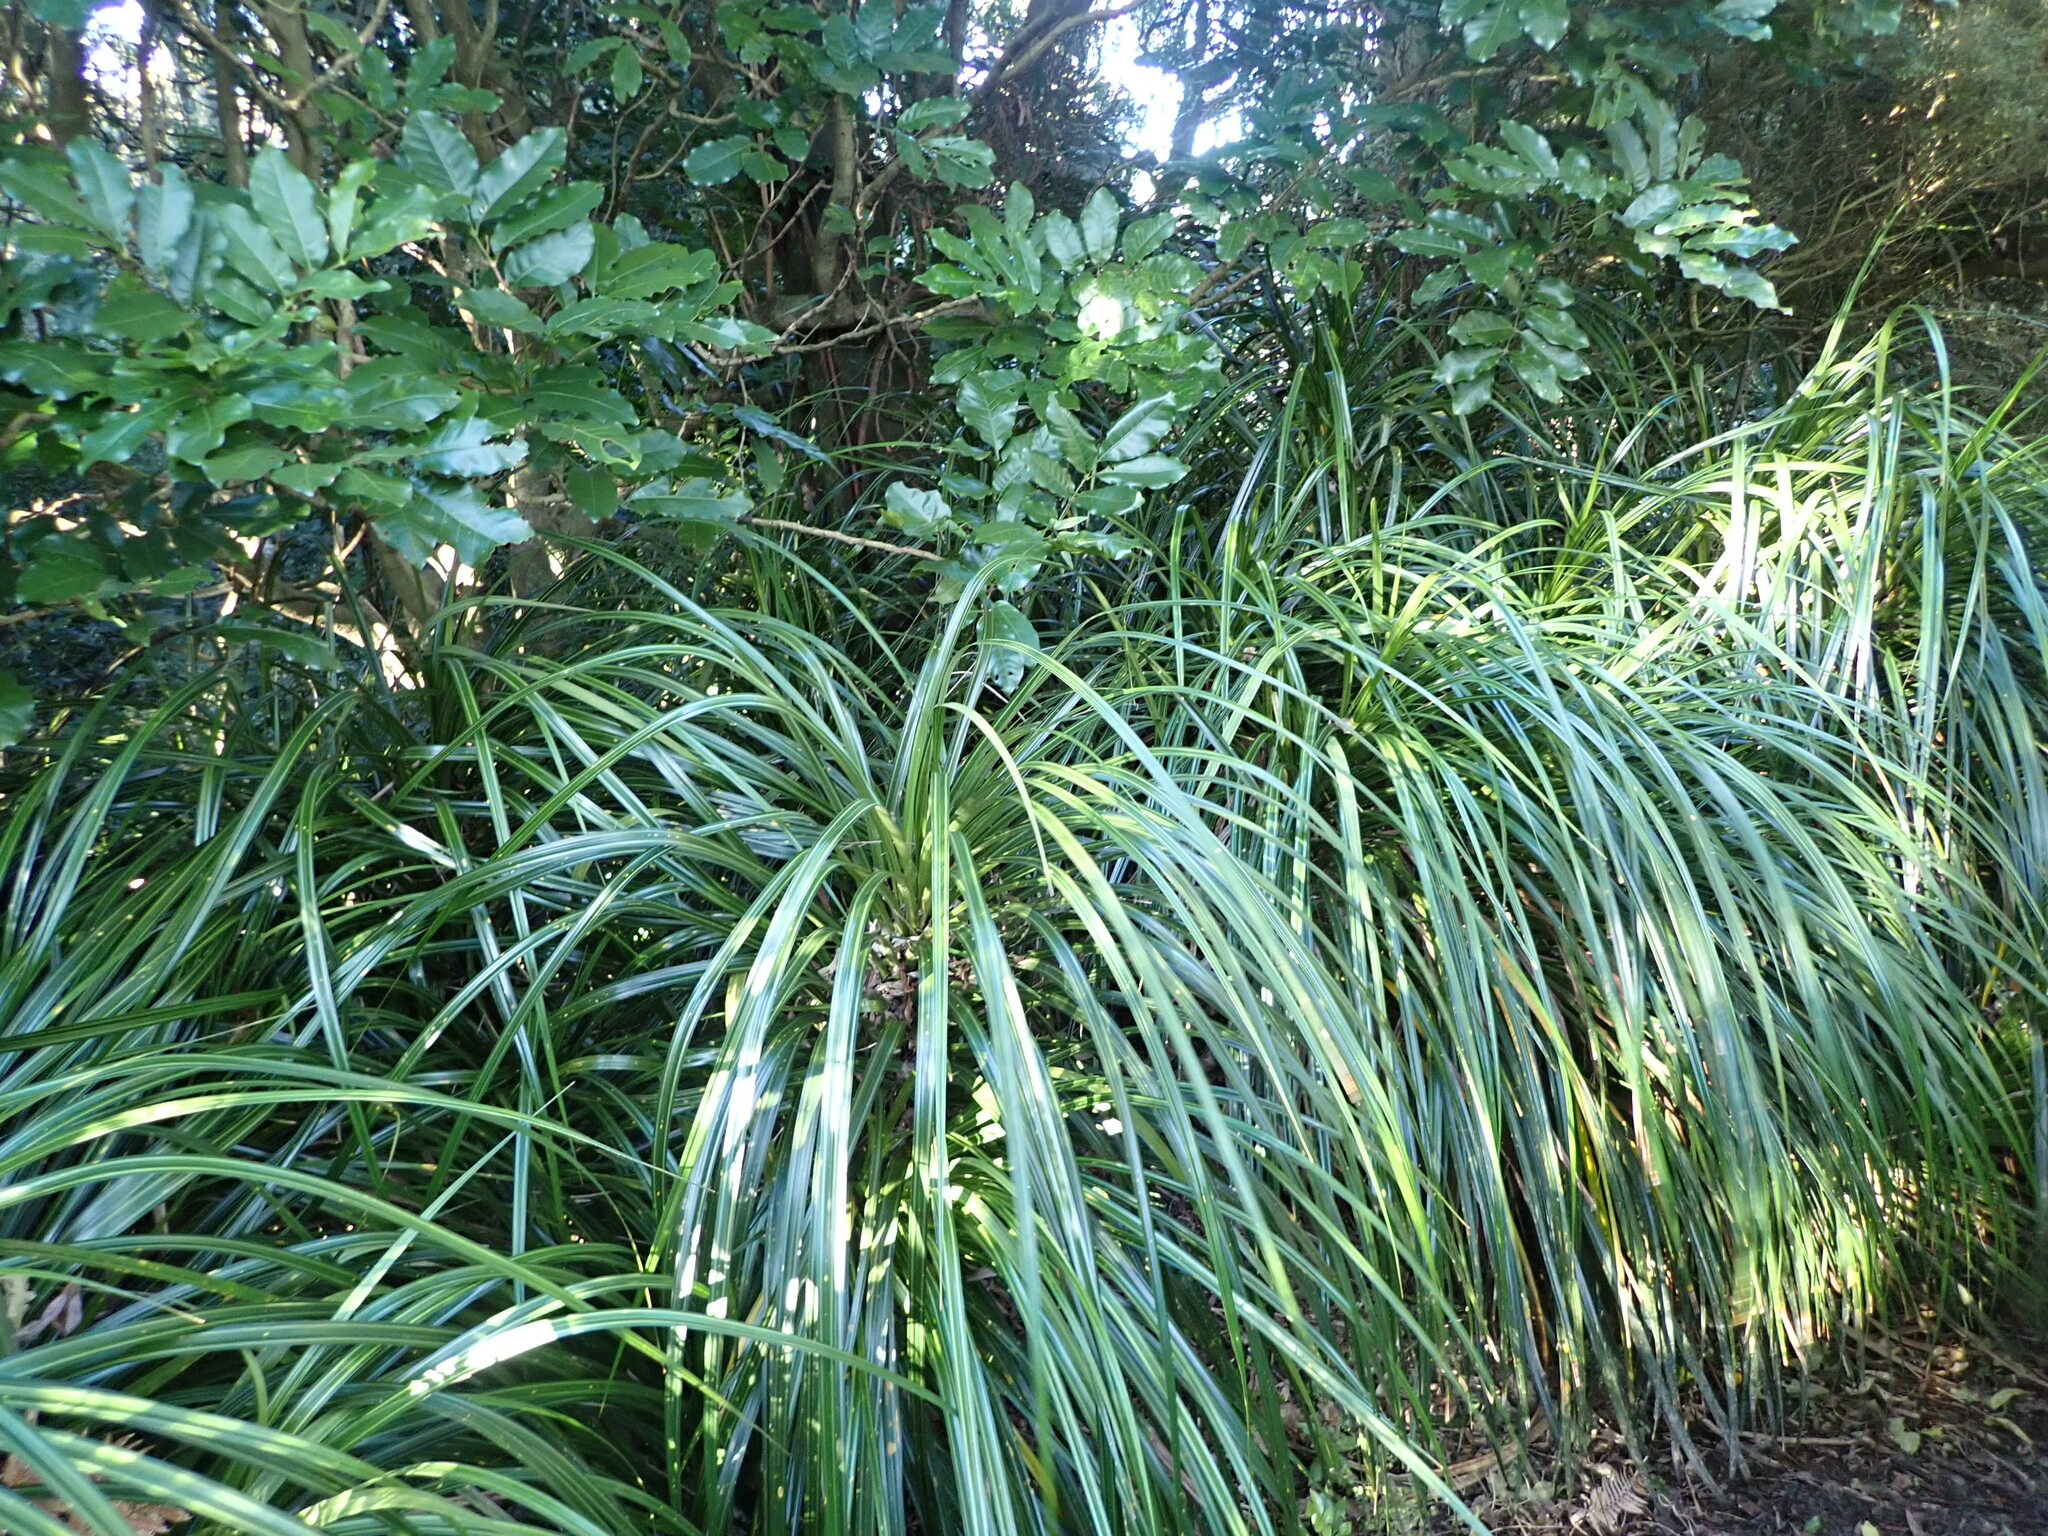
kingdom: Plantae
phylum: Tracheophyta
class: Liliopsida
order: Pandanales
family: Pandanaceae
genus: Freycinetia
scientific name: Freycinetia banksii
